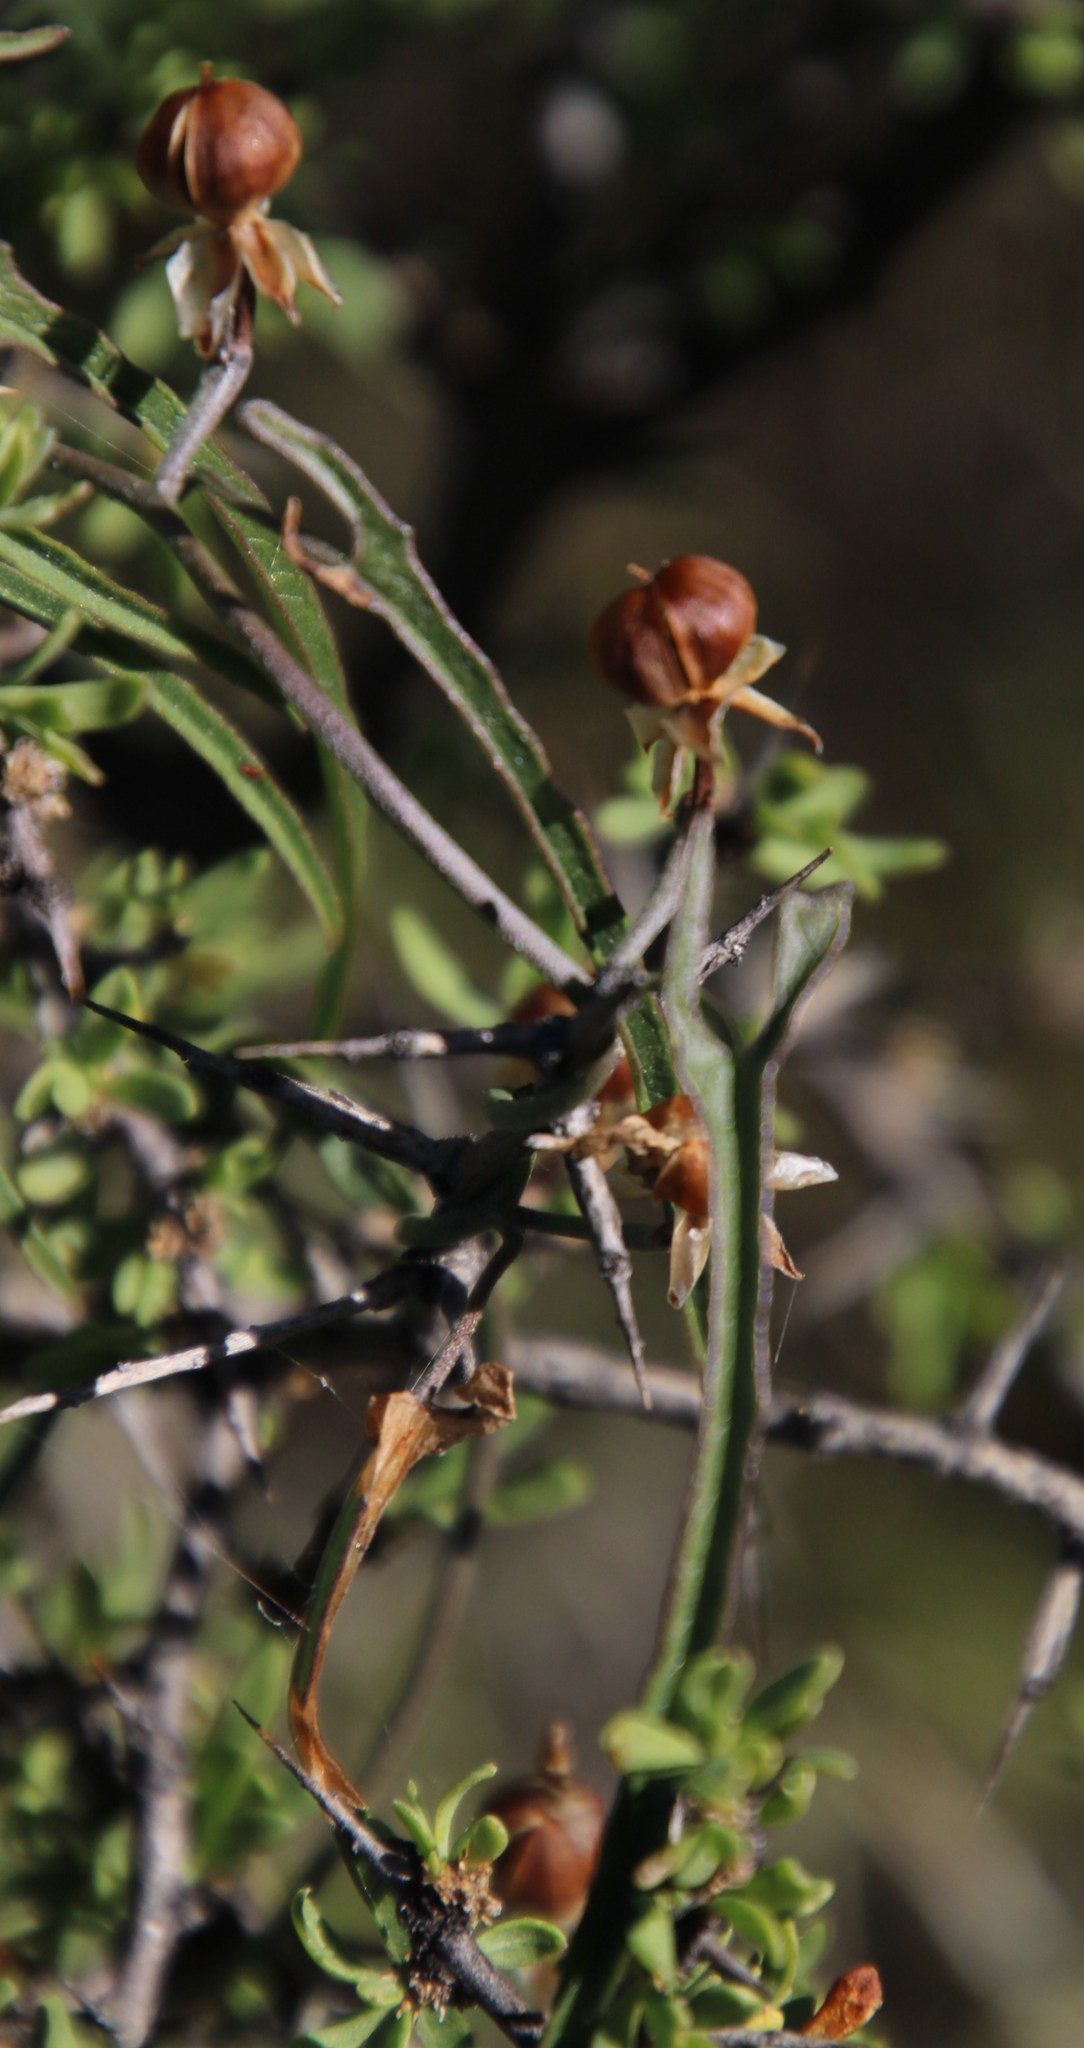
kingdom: Plantae
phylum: Tracheophyta
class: Magnoliopsida
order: Solanales
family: Convolvulaceae
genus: Convolvulus
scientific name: Convolvulus sagittatus
